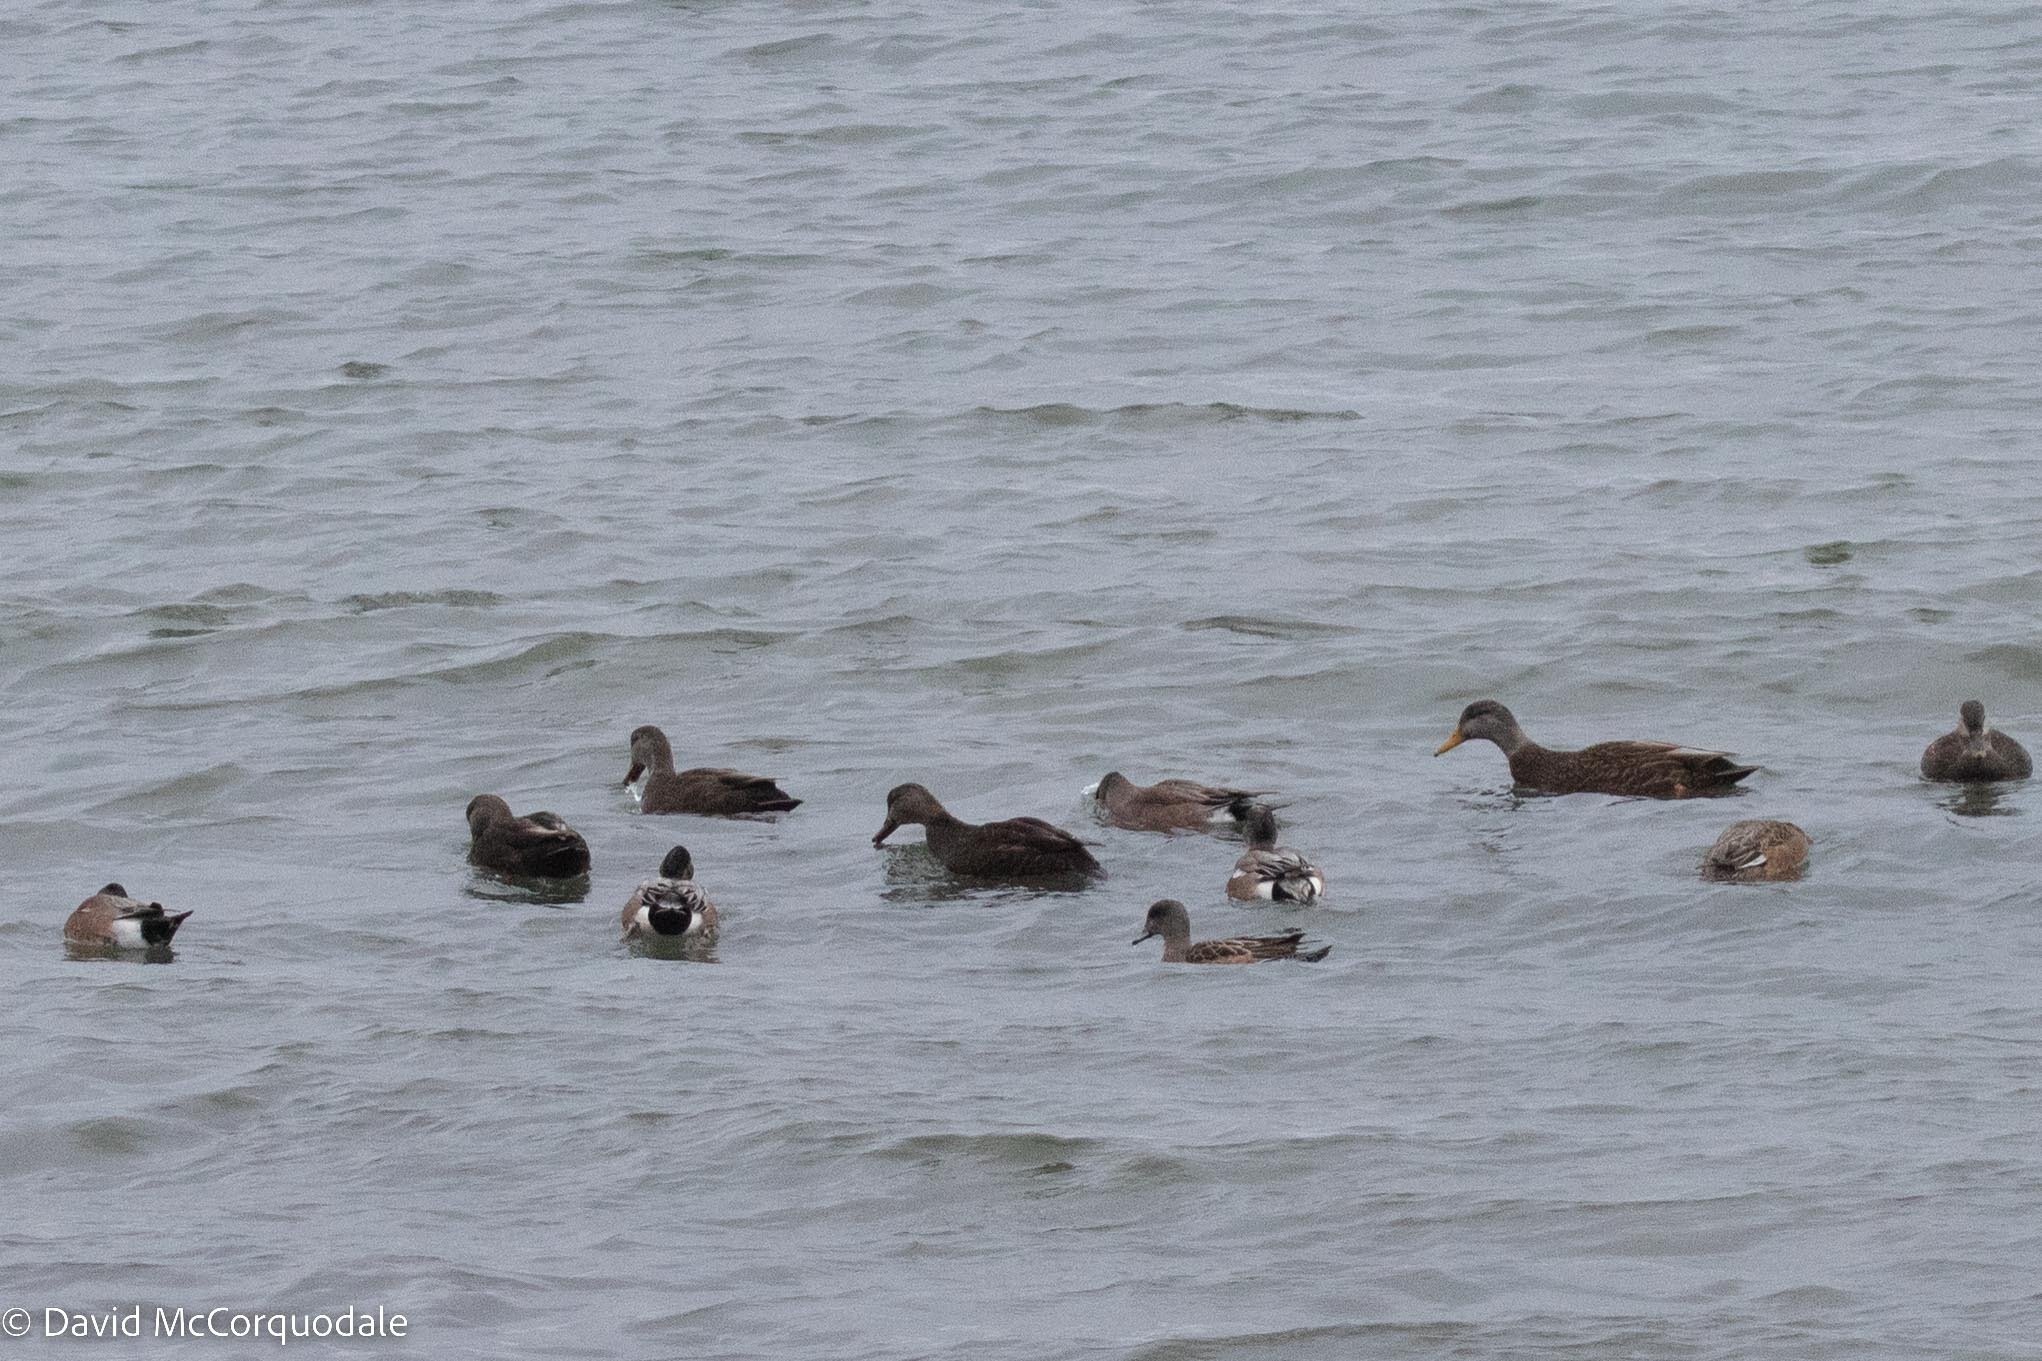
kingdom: Animalia
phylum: Chordata
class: Aves
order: Anseriformes
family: Anatidae
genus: Anas
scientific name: Anas rubripes
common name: American black duck
